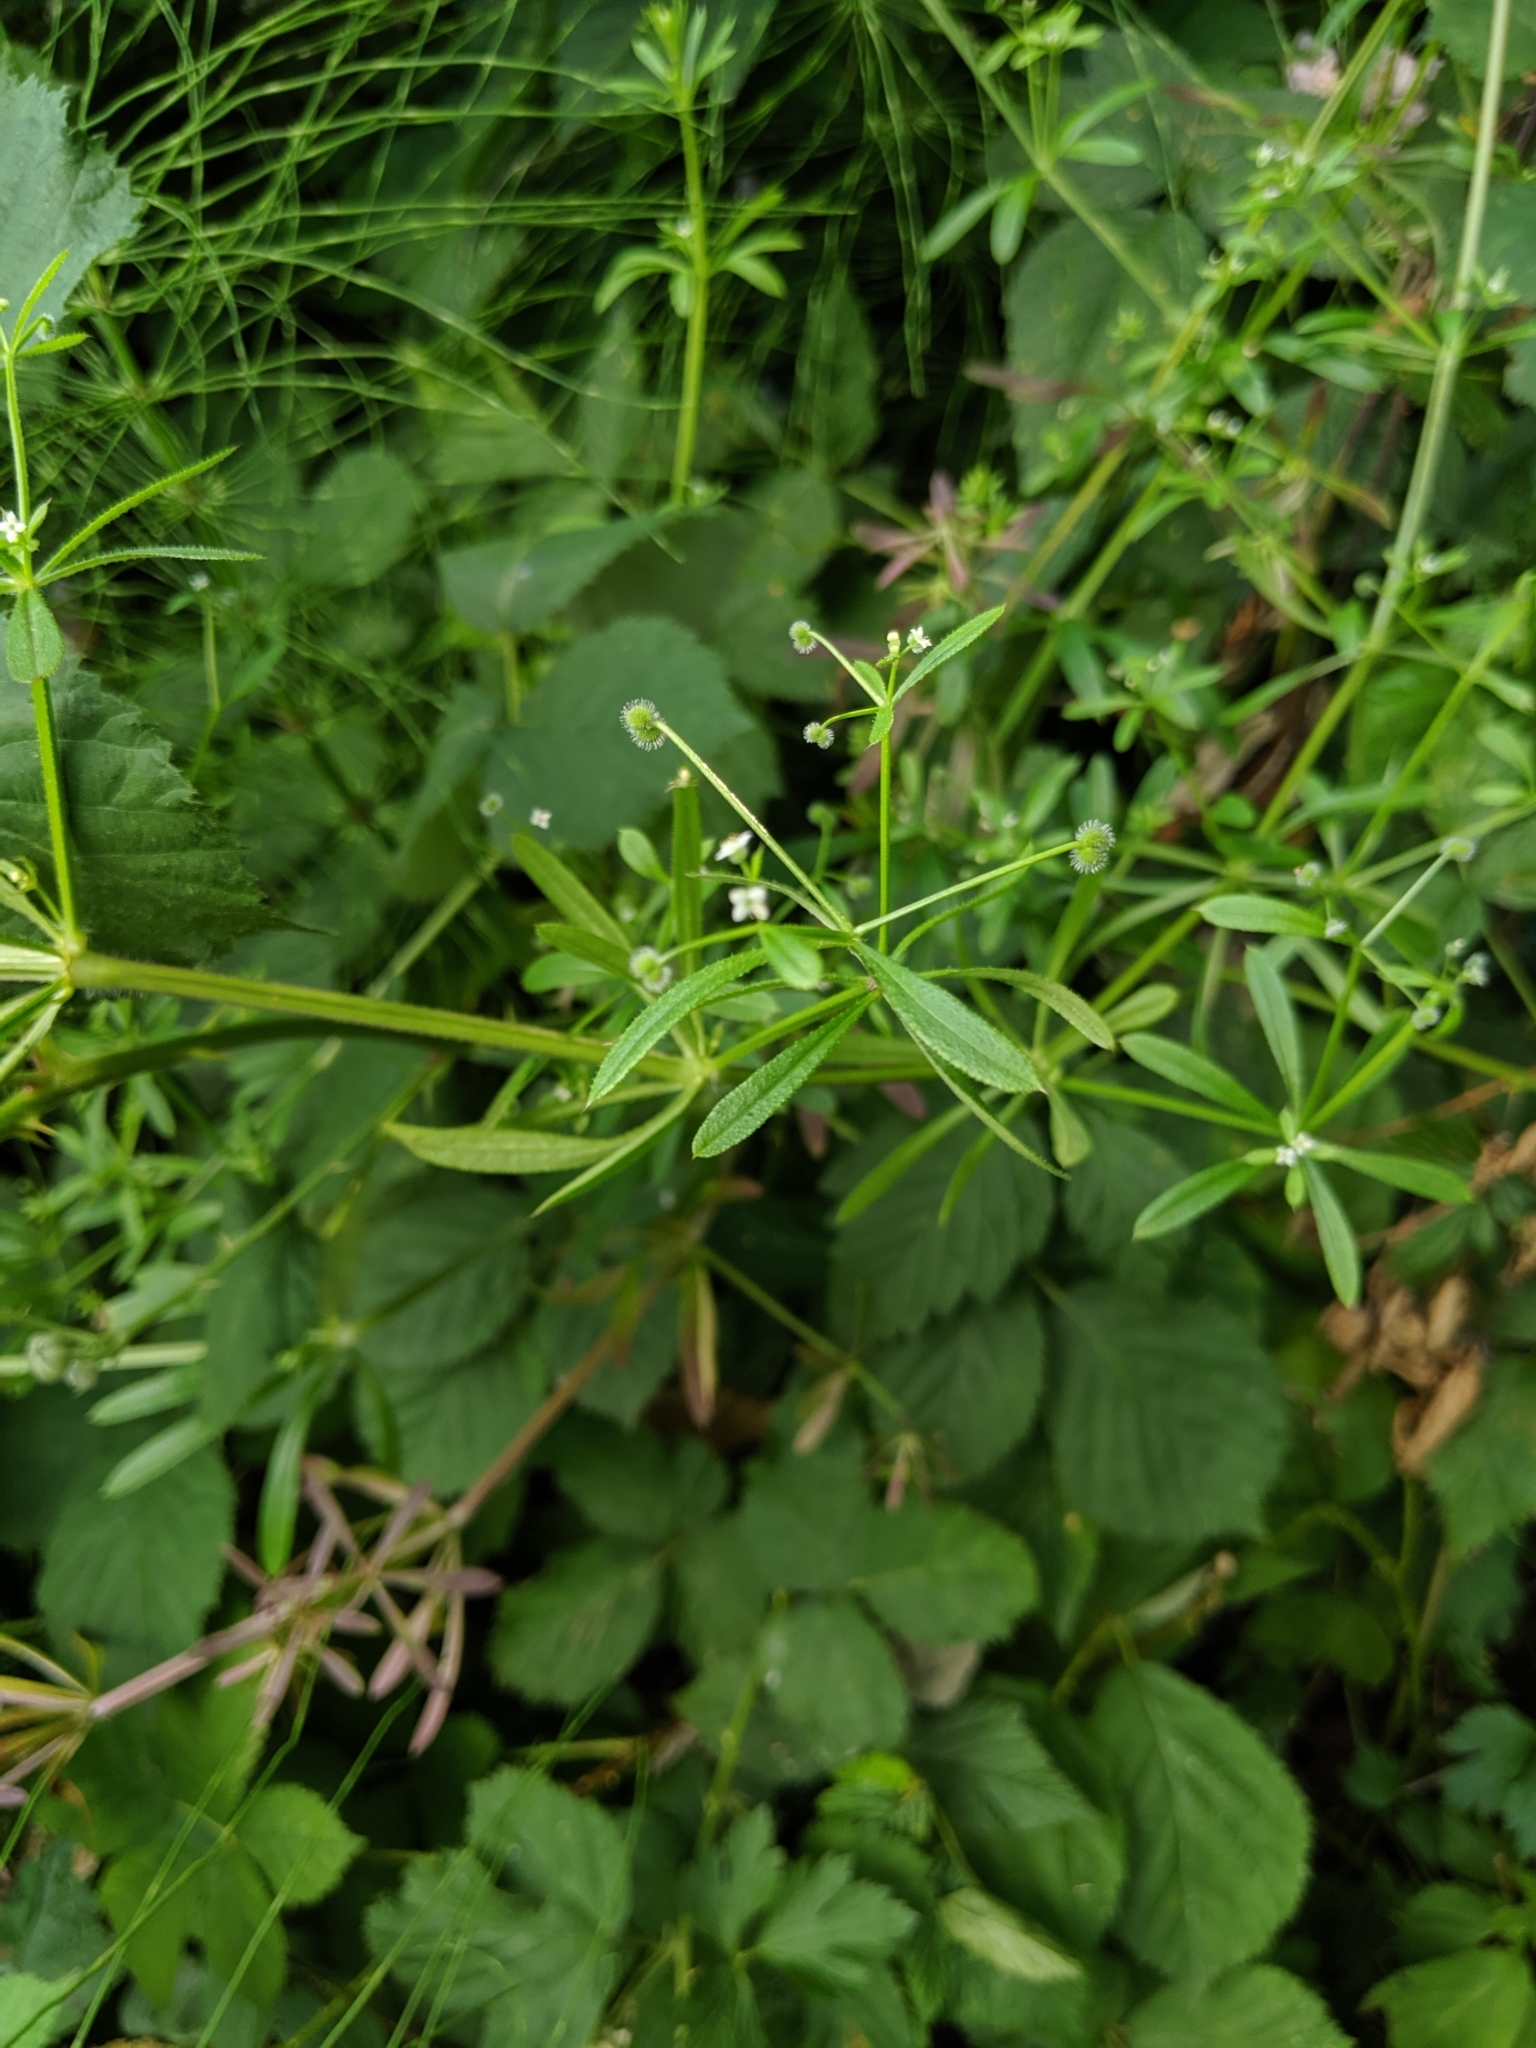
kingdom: Plantae
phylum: Tracheophyta
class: Magnoliopsida
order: Gentianales
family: Rubiaceae
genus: Galium
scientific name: Galium aparine
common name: Cleavers
